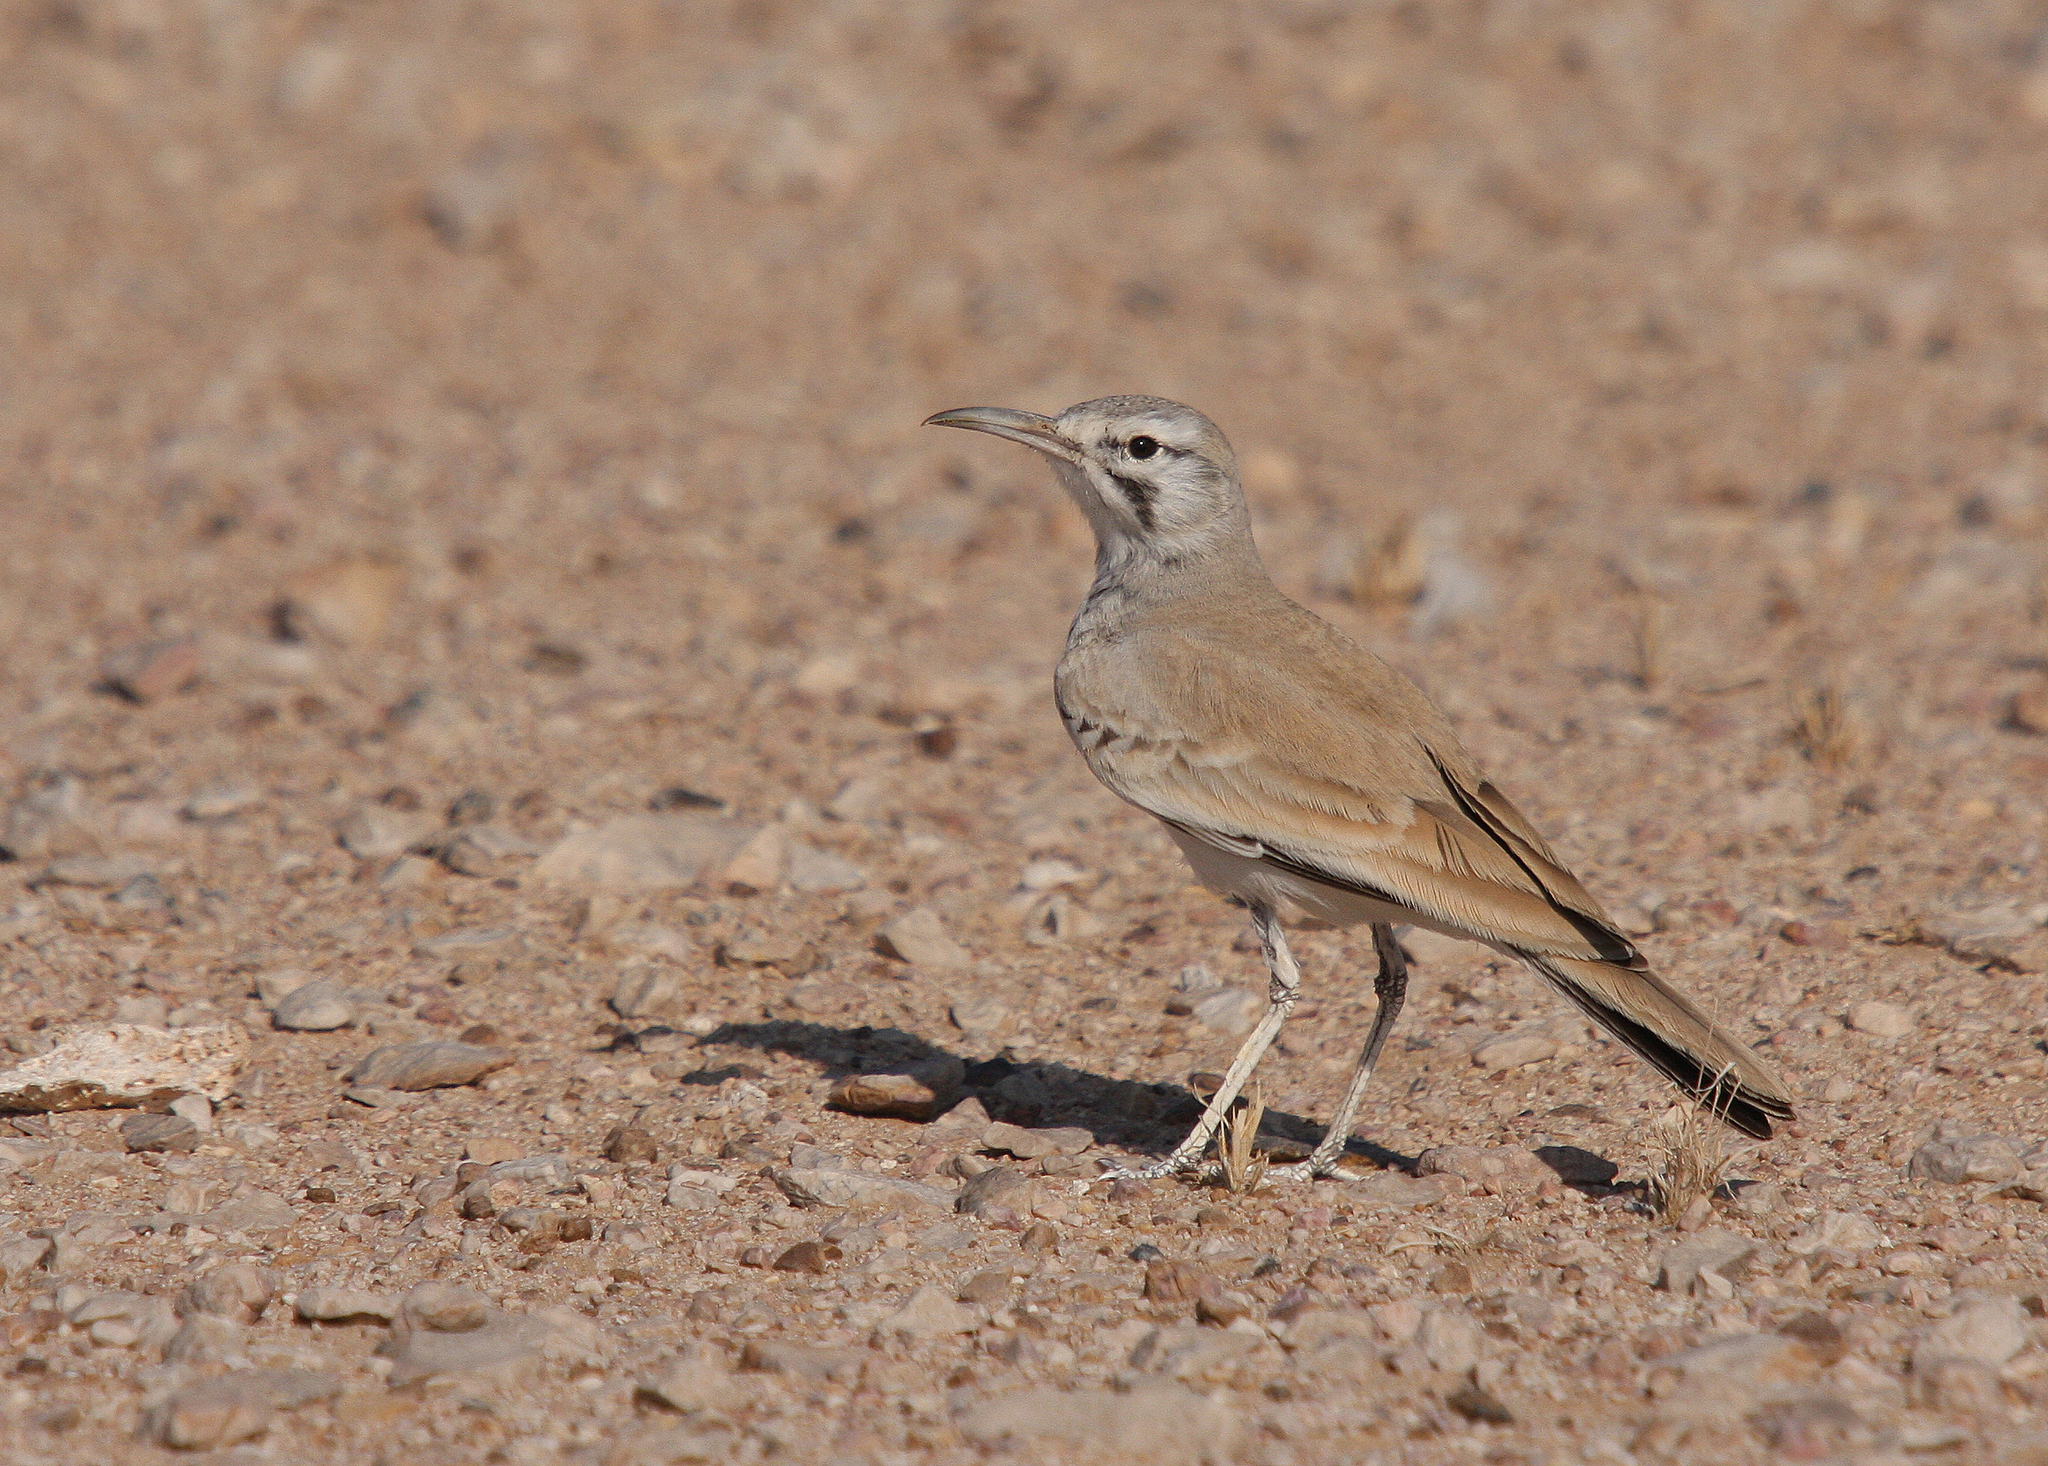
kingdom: Animalia
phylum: Chordata
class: Aves
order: Passeriformes
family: Alaudidae
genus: Alaemon
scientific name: Alaemon alaudipes
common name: Greater hoopoe-lark
